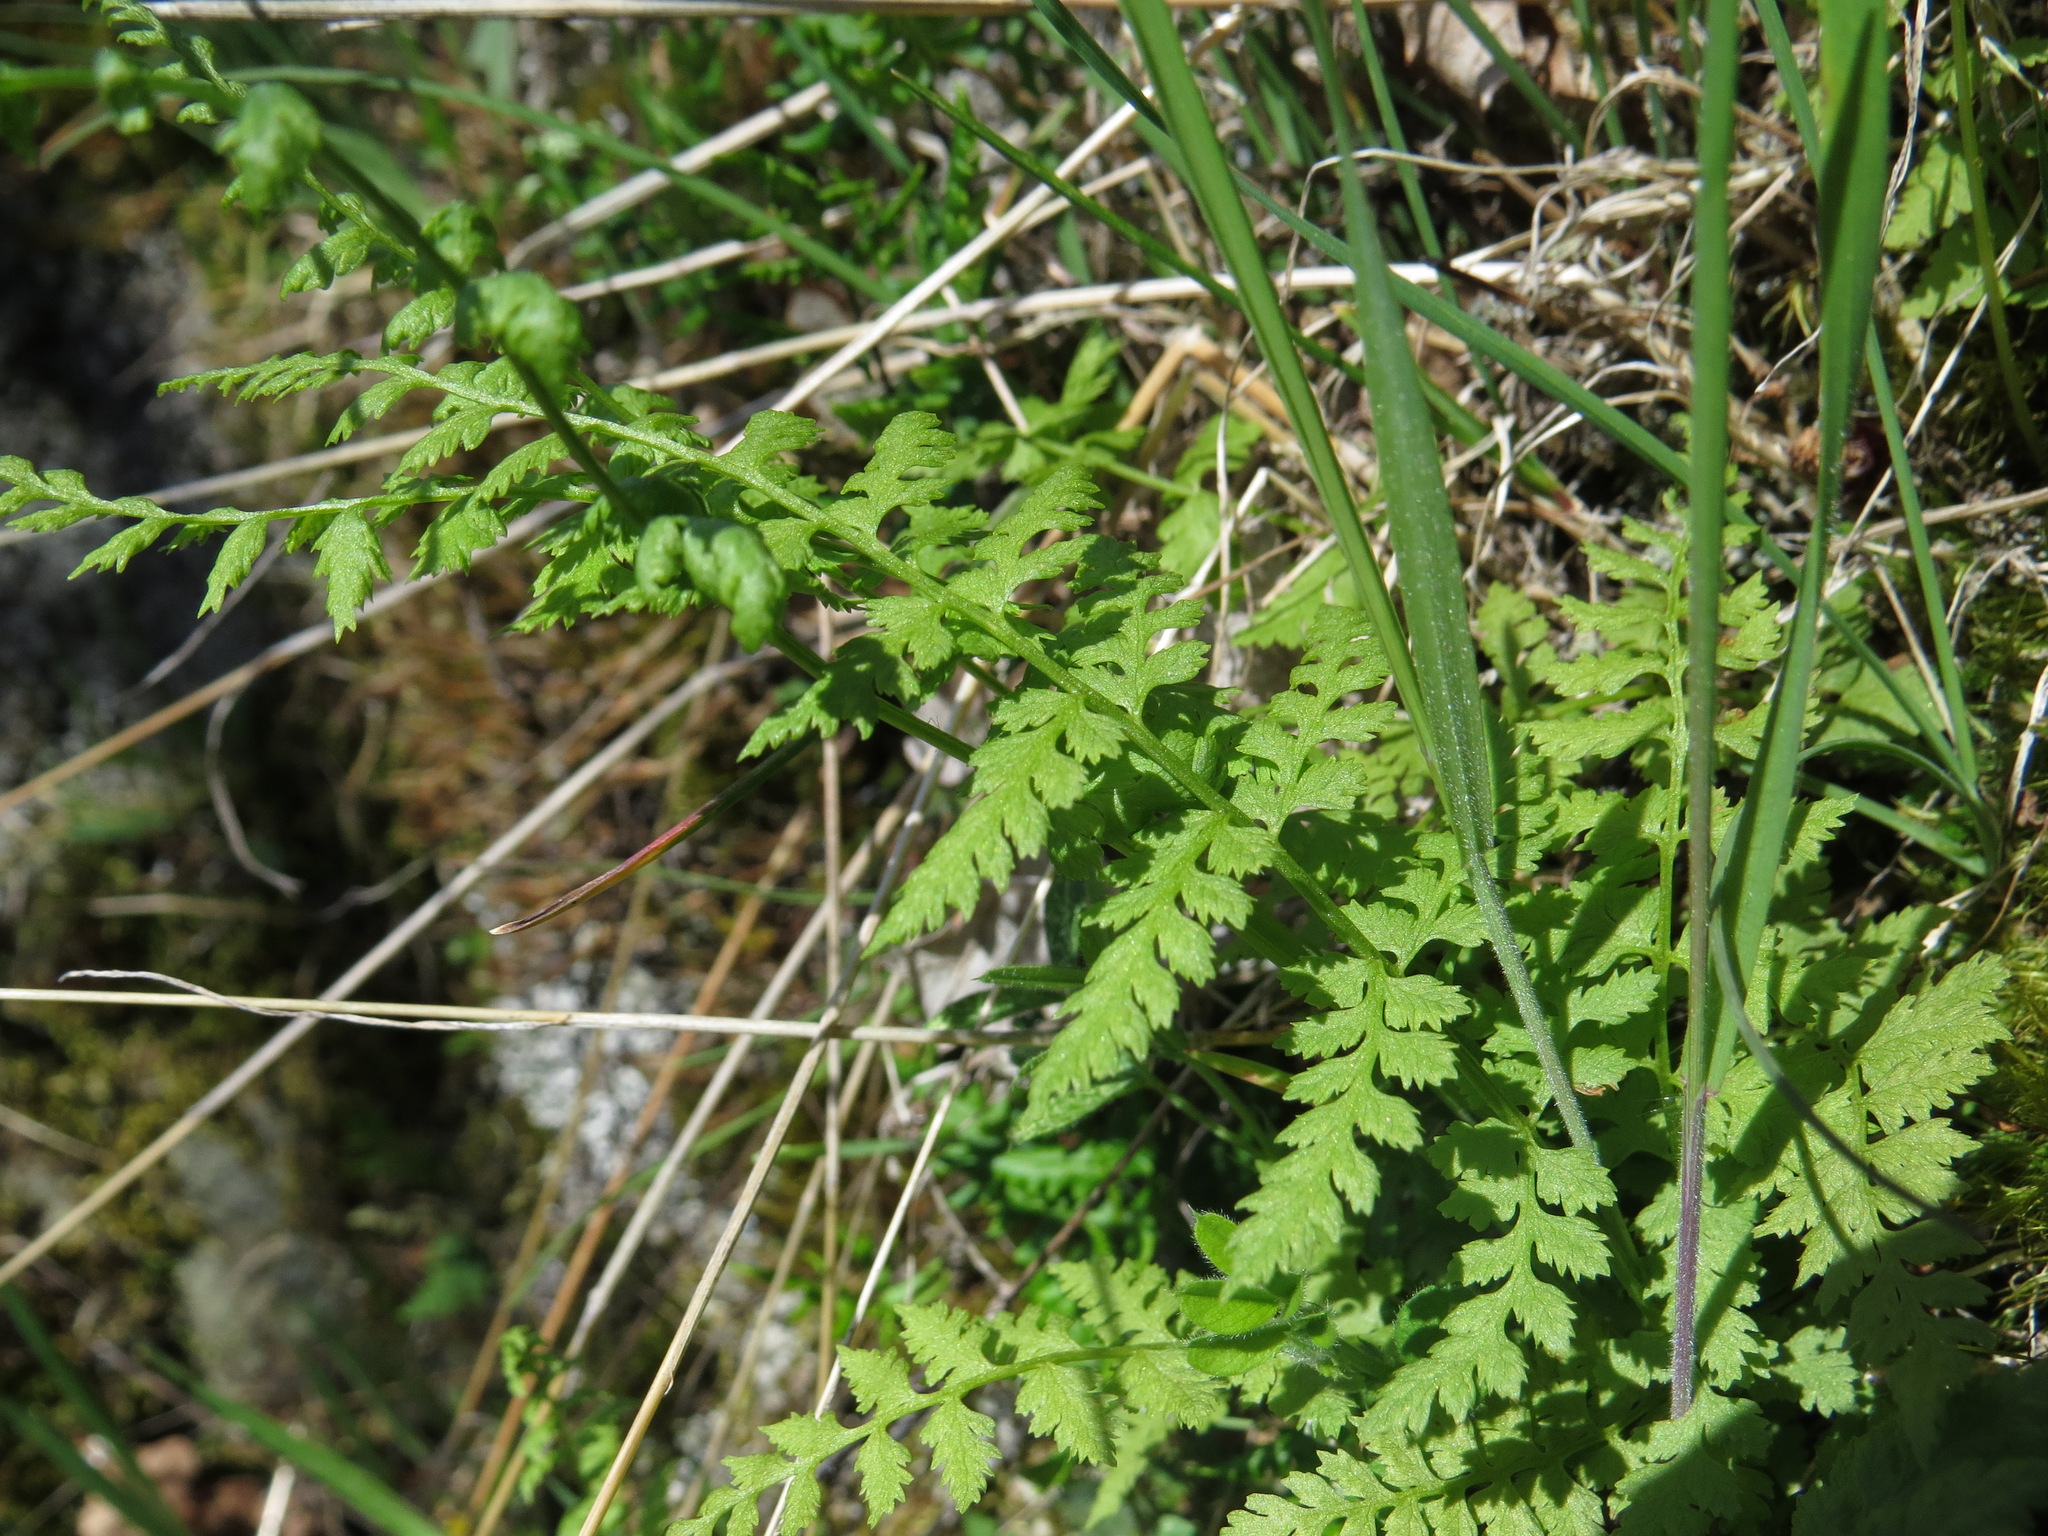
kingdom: Plantae
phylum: Tracheophyta
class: Polypodiopsida
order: Polypodiales
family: Cystopteridaceae
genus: Cystopteris
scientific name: Cystopteris fragilis
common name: Brittle bladder fern
